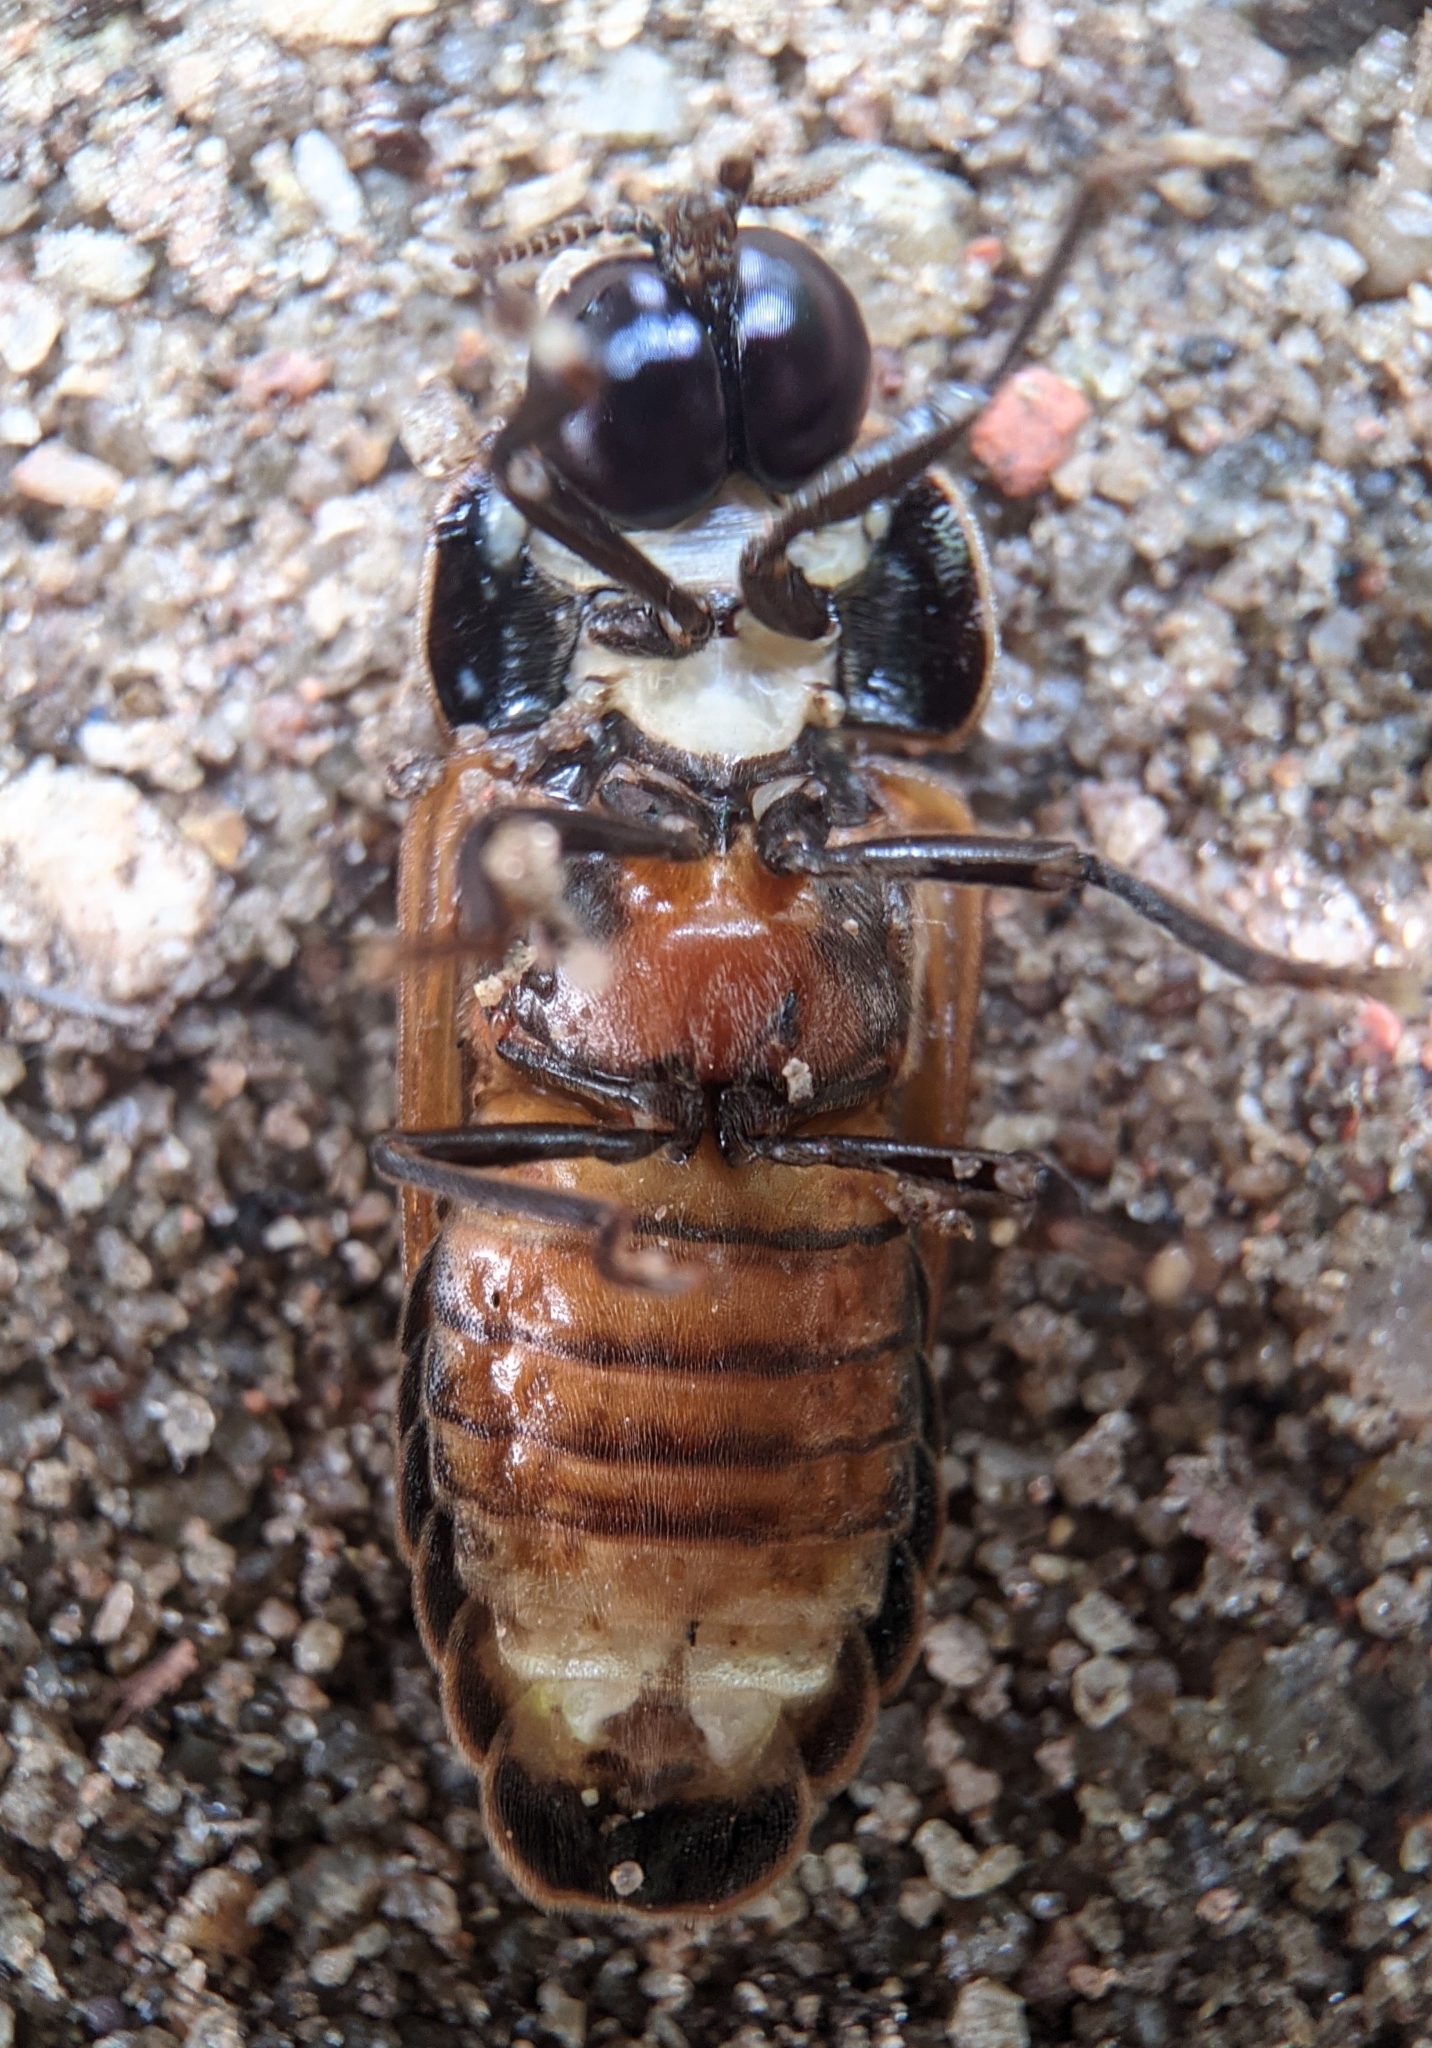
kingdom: Animalia
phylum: Arthropoda
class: Insecta
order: Coleoptera
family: Lampyridae
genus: Lamprigera
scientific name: Lamprigera tenebrosa
